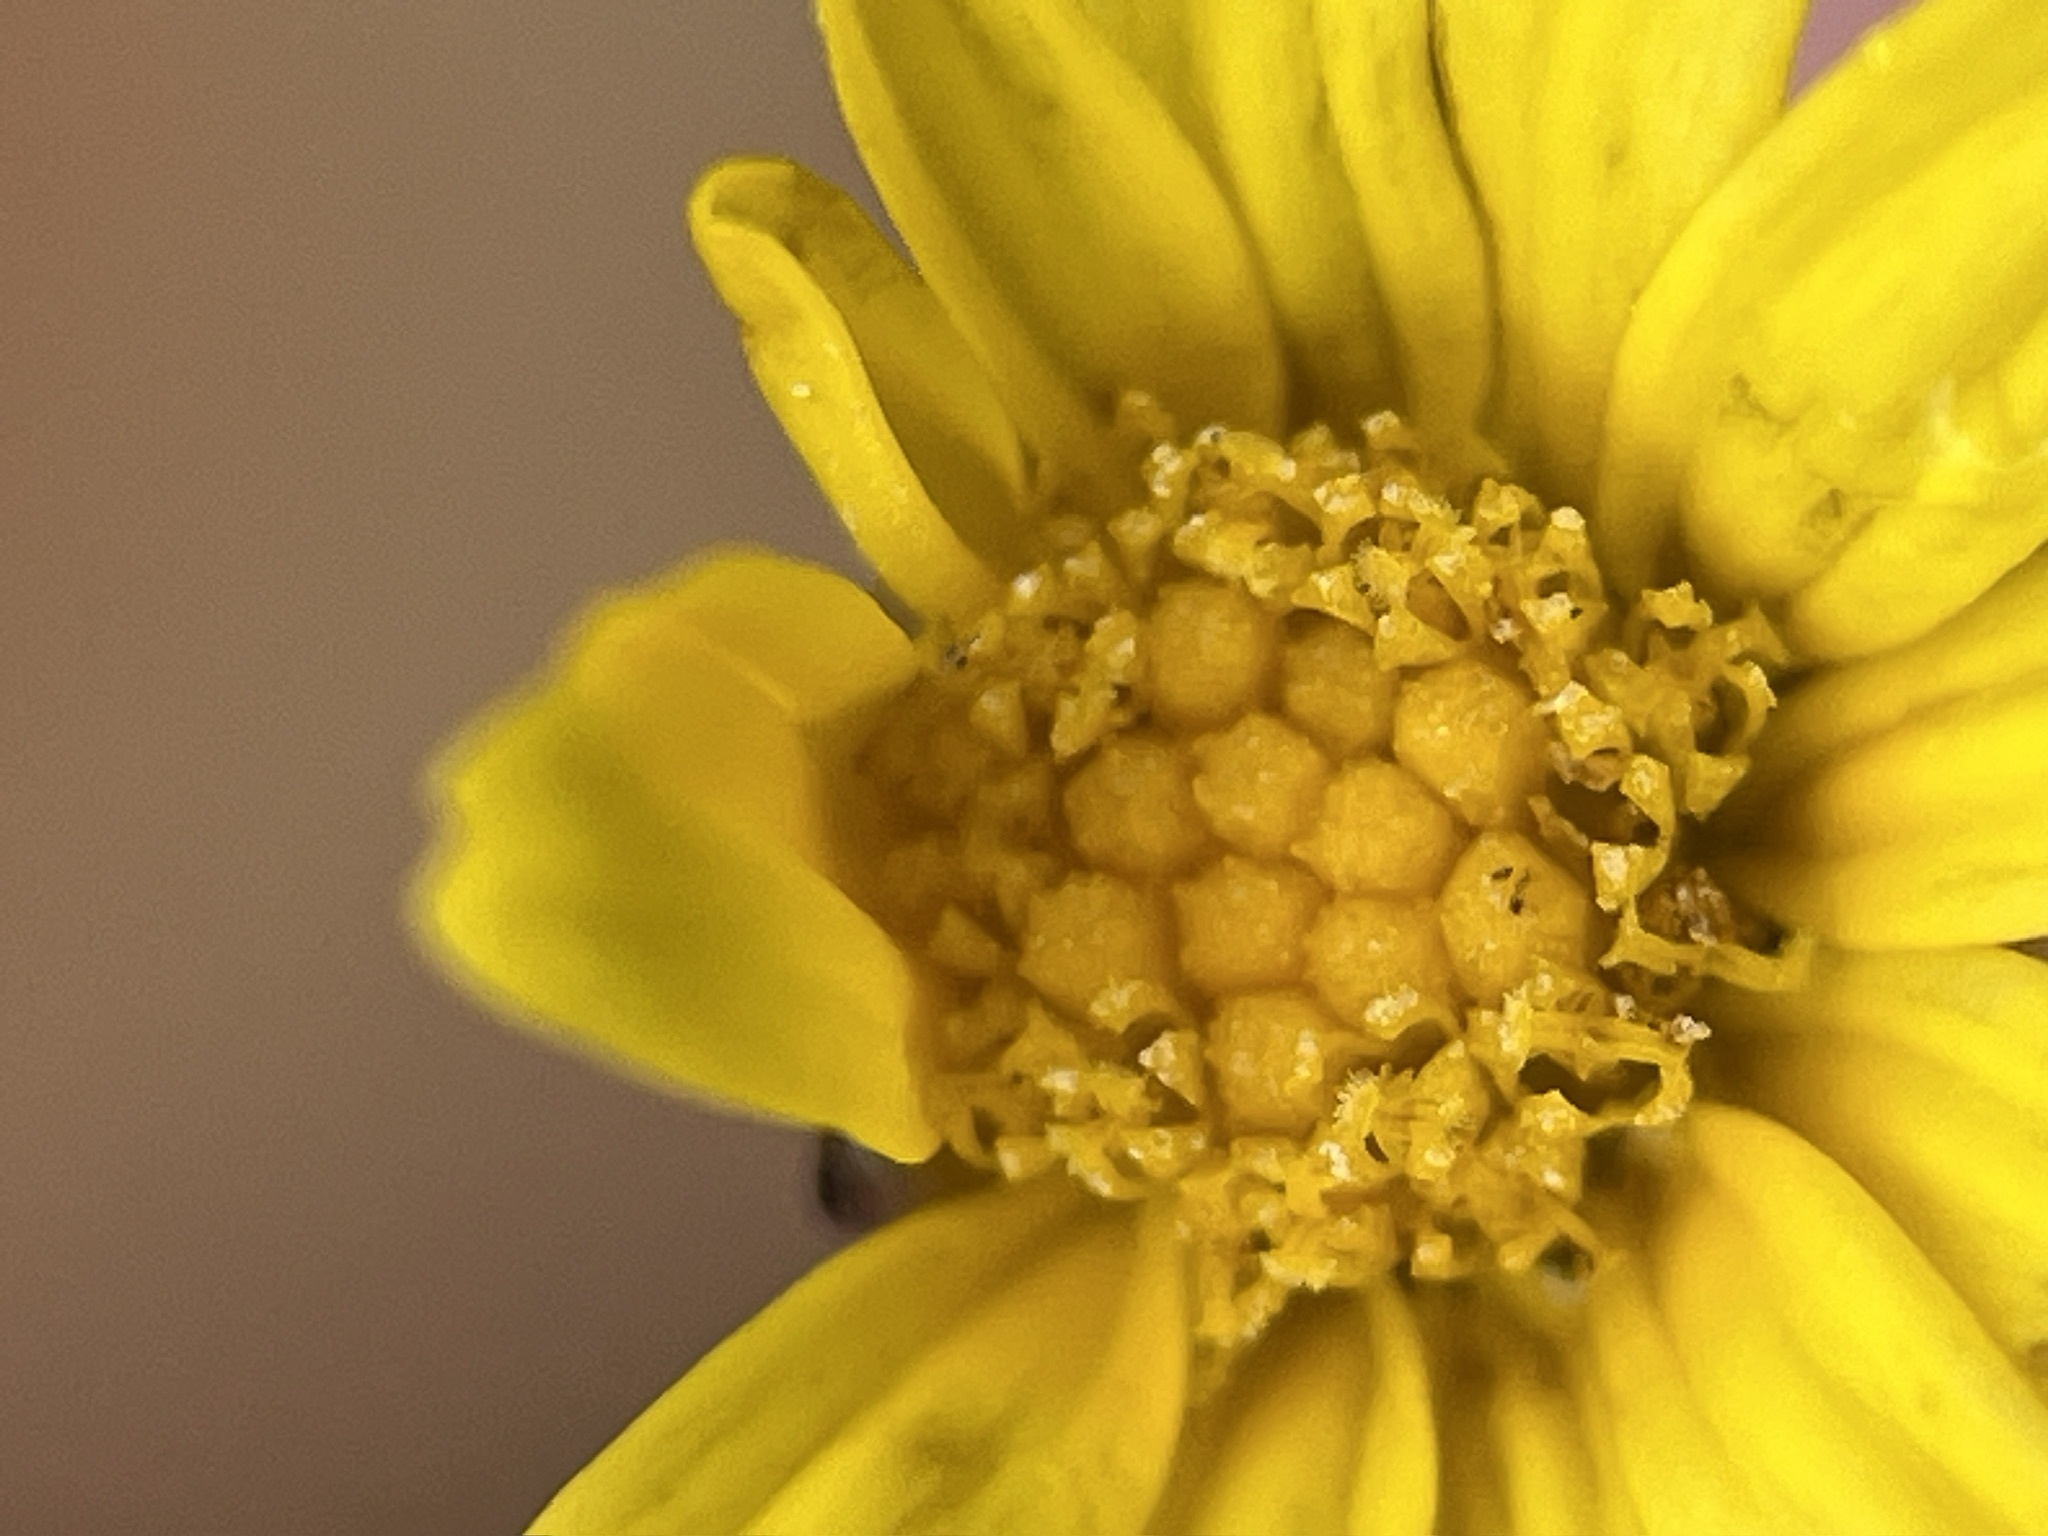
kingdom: Plantae
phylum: Tracheophyta
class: Magnoliopsida
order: Asterales
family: Asteraceae
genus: Ursinia
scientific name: Ursinia trifida
